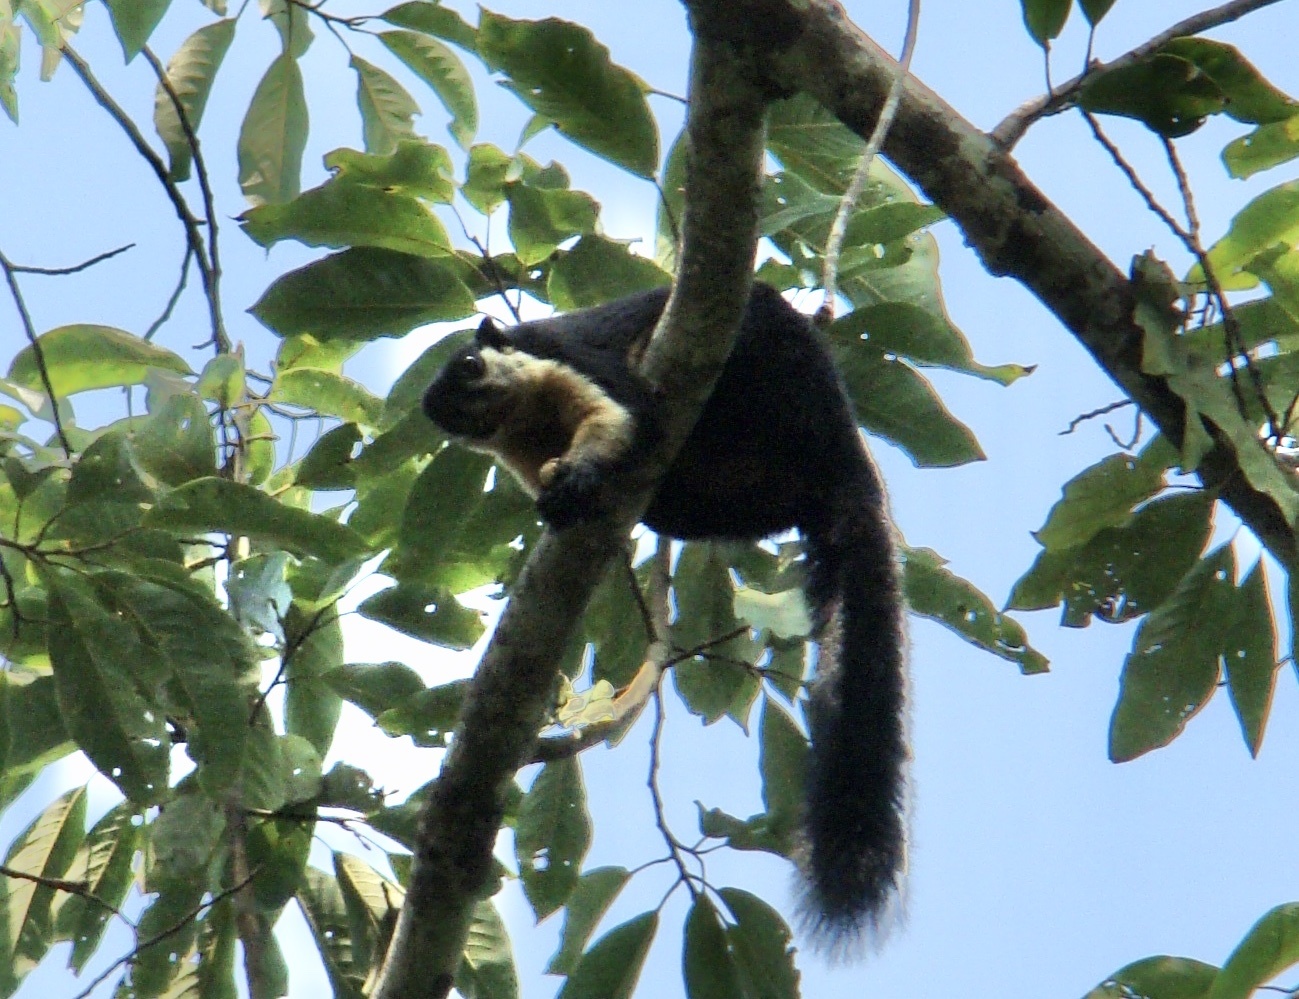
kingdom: Animalia
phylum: Chordata
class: Mammalia
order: Rodentia
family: Sciuridae
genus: Ratufa
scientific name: Ratufa bicolor
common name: Black giant squirrel
